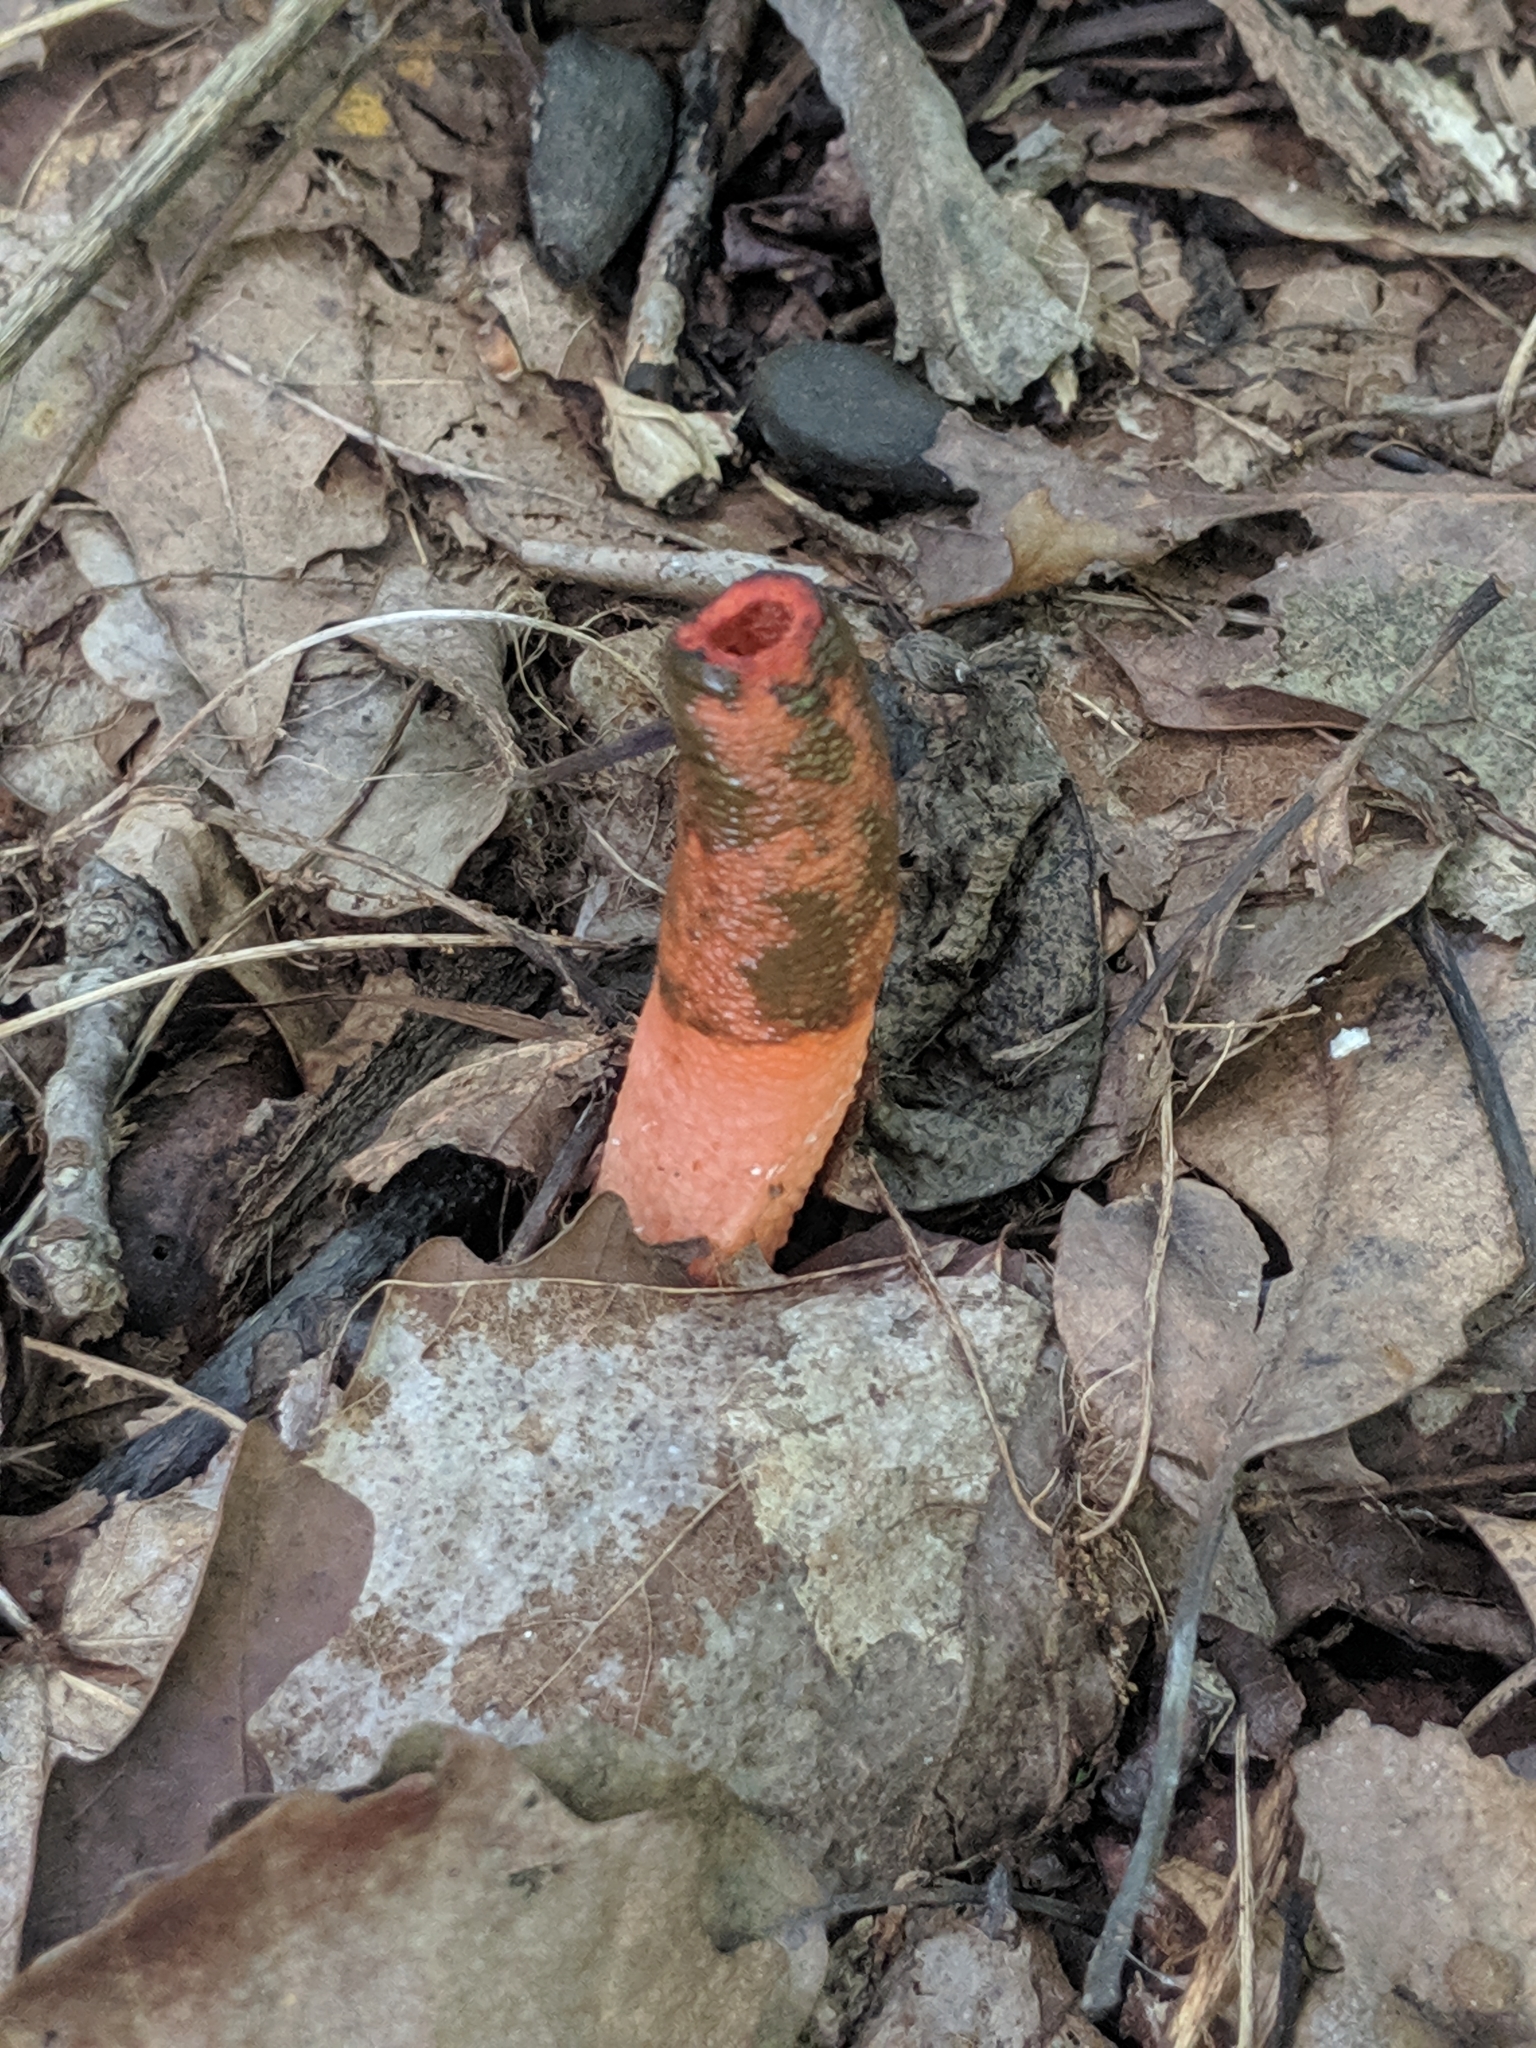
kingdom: Fungi
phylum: Basidiomycota
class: Agaricomycetes
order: Phallales
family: Phallaceae
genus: Mutinus
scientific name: Mutinus elegans
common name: Devil's dipstick
